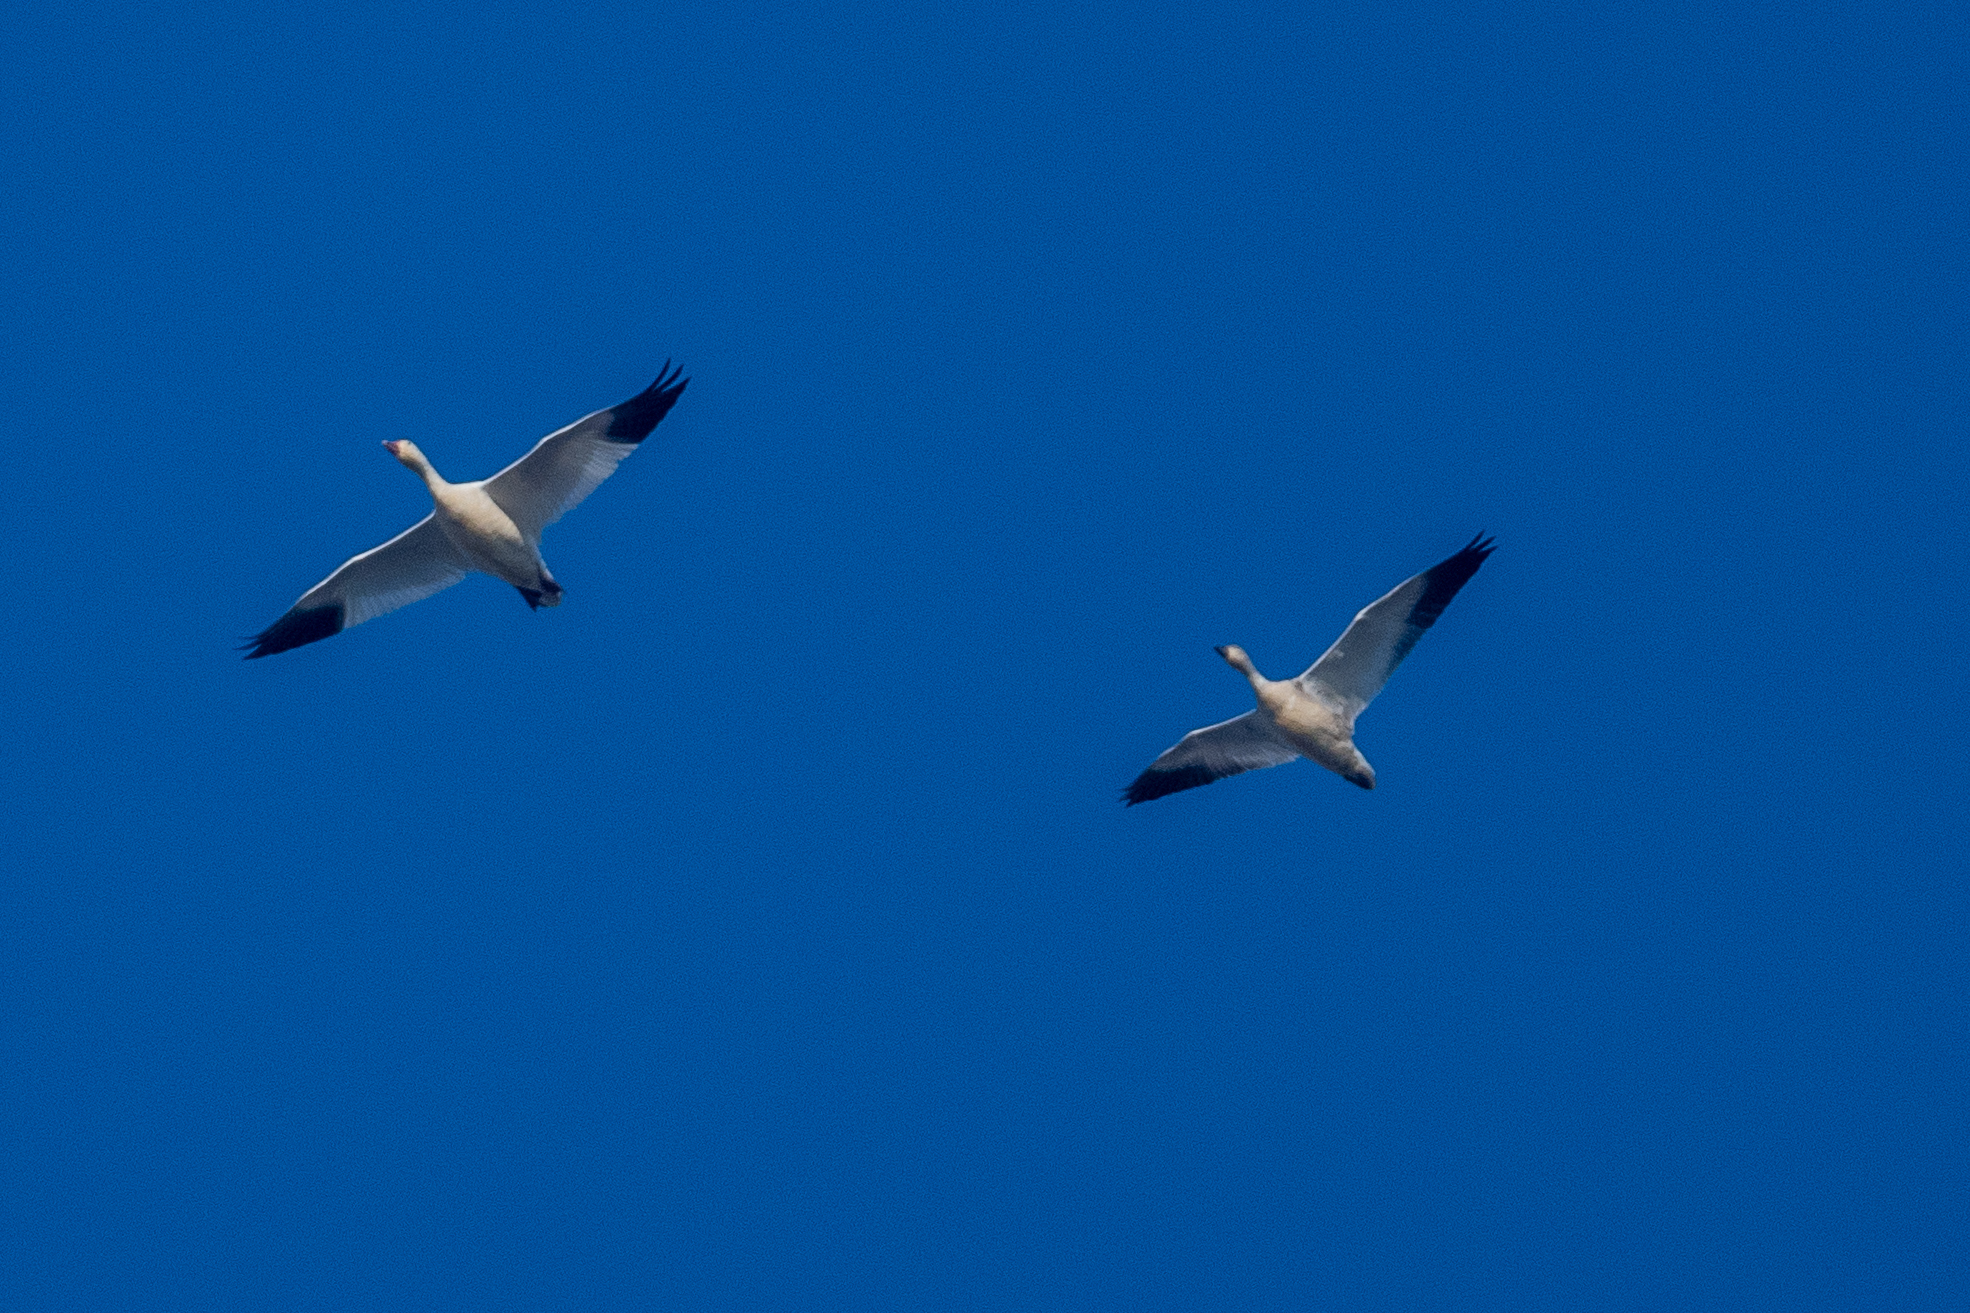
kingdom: Animalia
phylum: Chordata
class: Aves
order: Anseriformes
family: Anatidae
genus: Anser
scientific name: Anser caerulescens
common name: Snow goose
